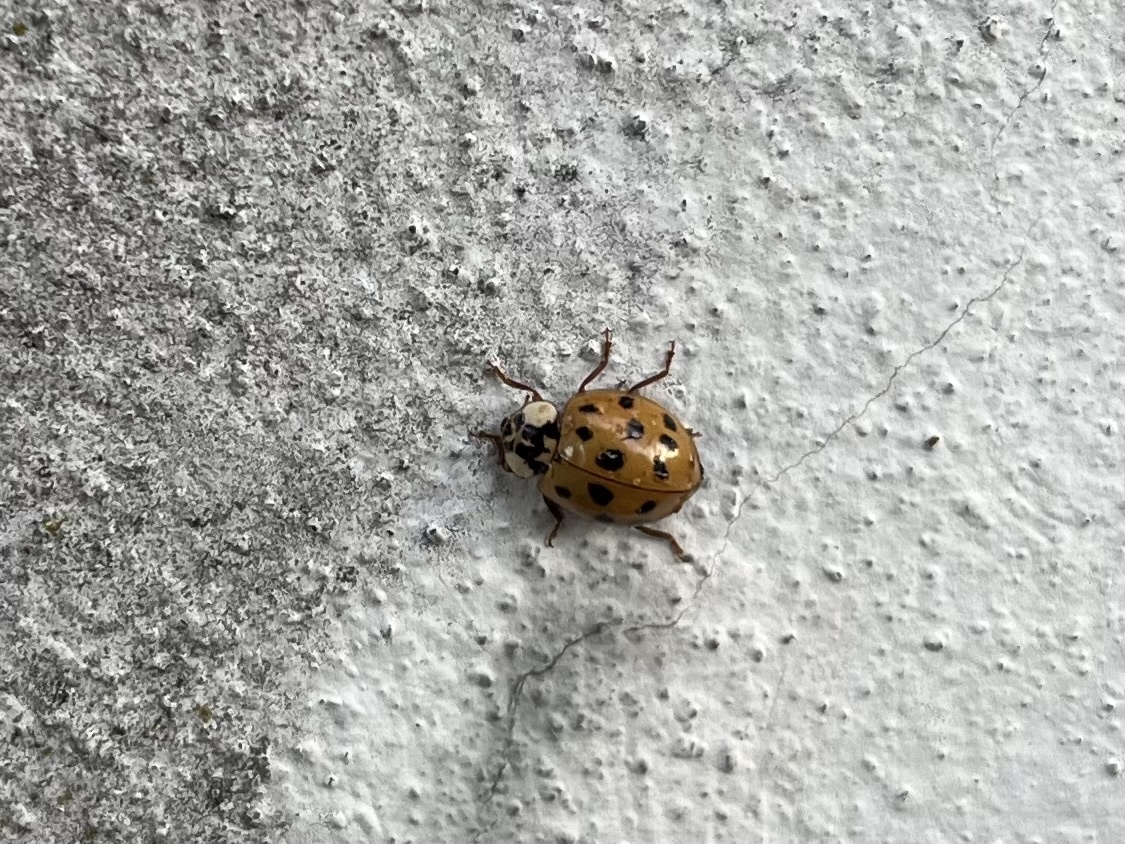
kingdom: Animalia
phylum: Arthropoda
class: Insecta
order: Coleoptera
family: Coccinellidae
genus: Harmonia
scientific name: Harmonia axyridis
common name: Harlequin ladybird
